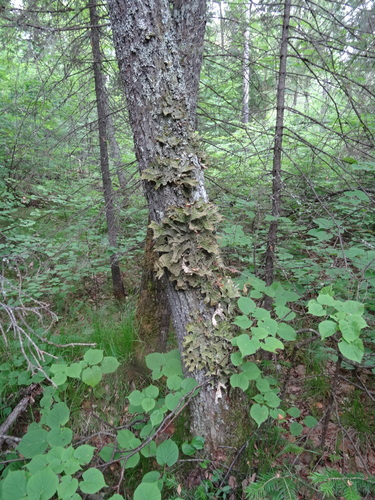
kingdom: Fungi
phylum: Ascomycota
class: Lecanoromycetes
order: Peltigerales
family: Lobariaceae
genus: Lobaria
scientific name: Lobaria pulmonaria
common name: Lungwort
